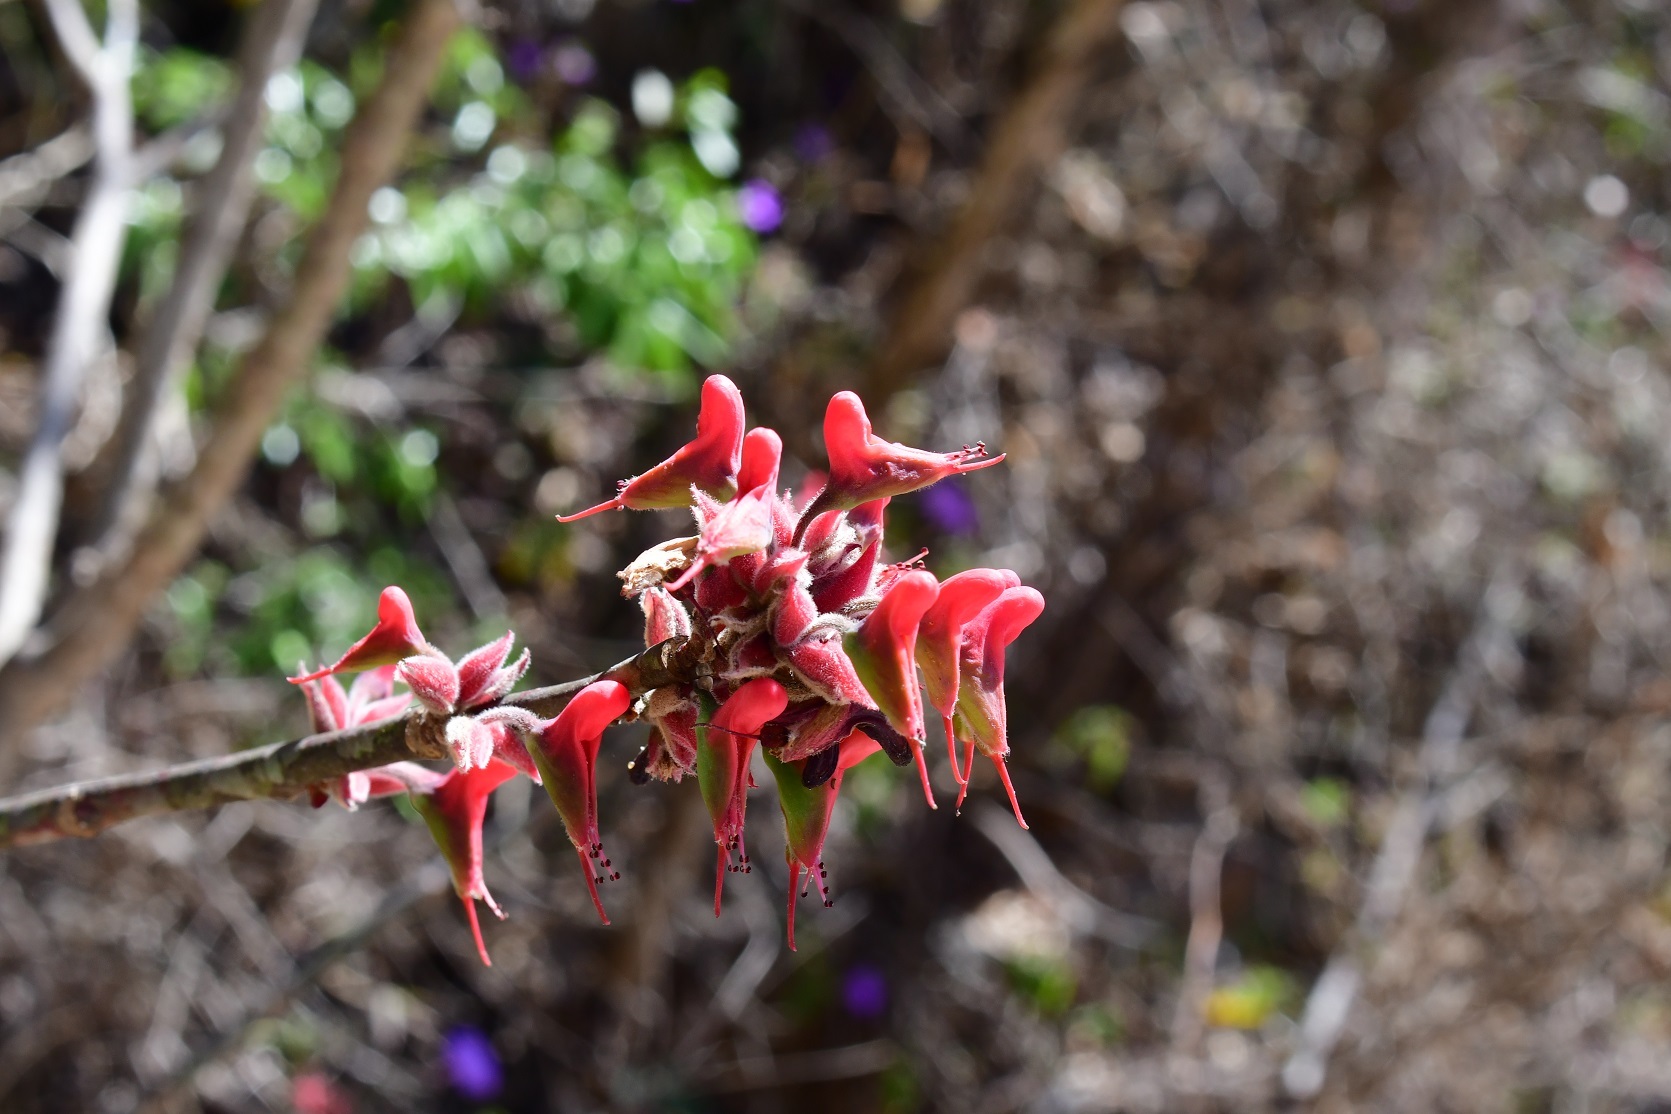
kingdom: Plantae
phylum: Tracheophyta
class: Magnoliopsida
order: Malpighiales
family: Euphorbiaceae
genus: Euphorbia
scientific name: Euphorbia calcarata
